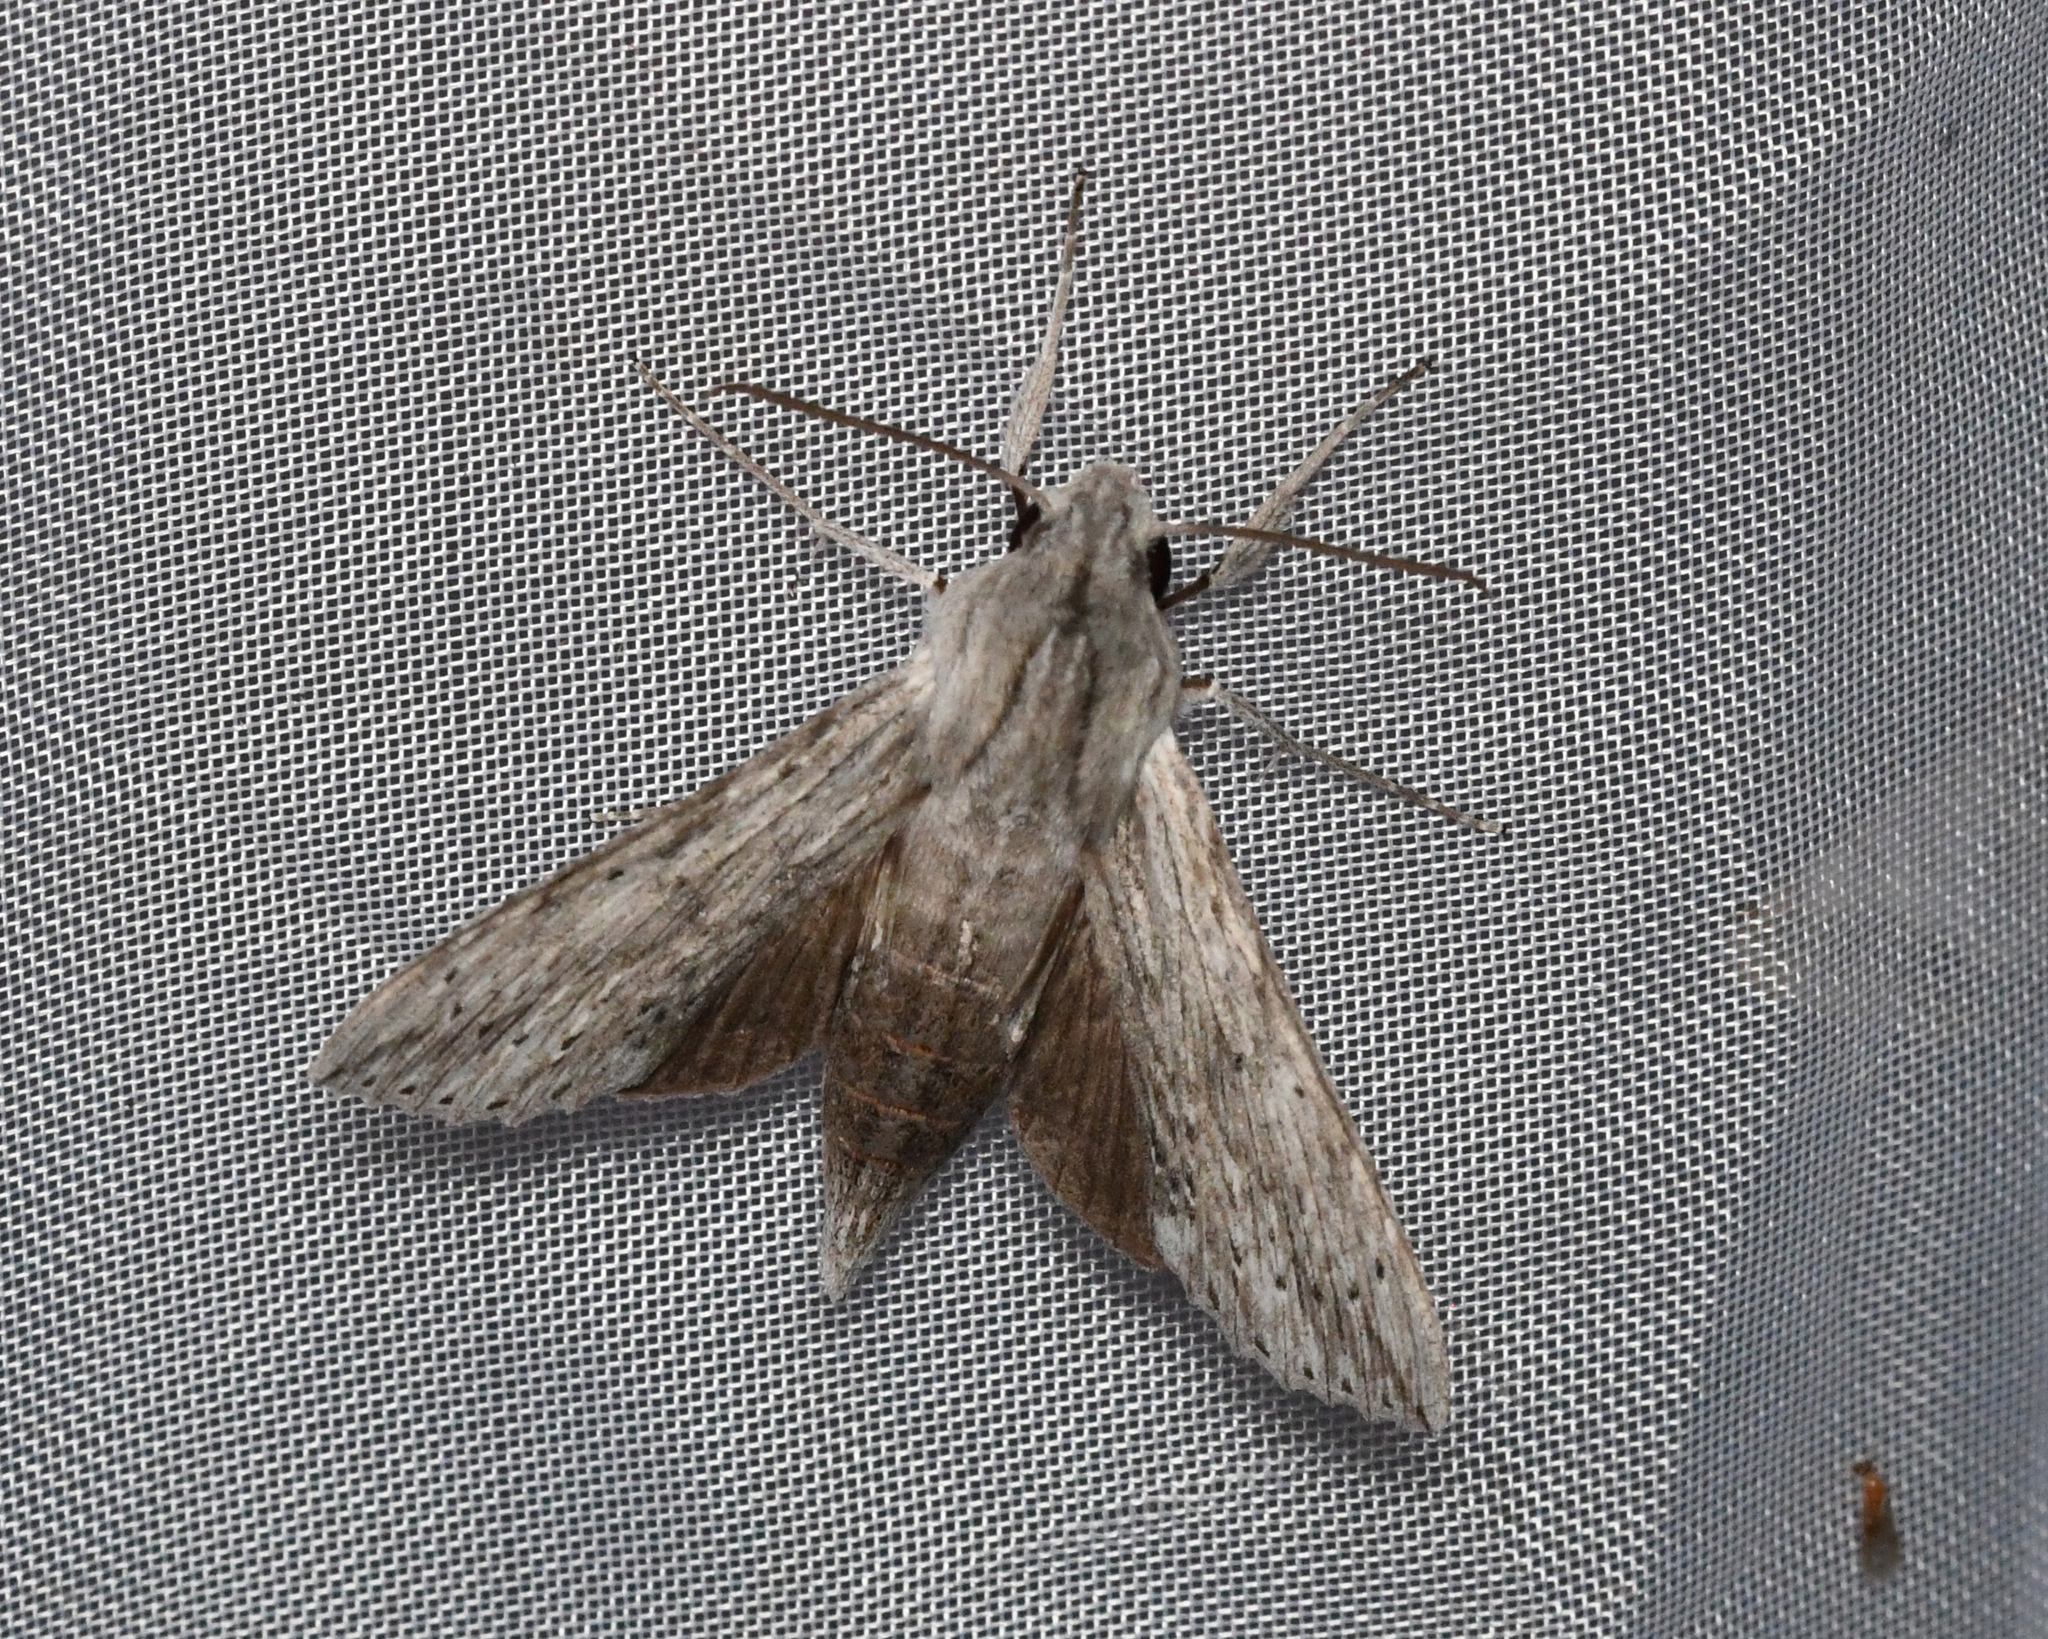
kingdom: Animalia
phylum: Arthropoda
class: Insecta
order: Lepidoptera
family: Sphingidae
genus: Erinnyis
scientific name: Erinnyis guttularis
